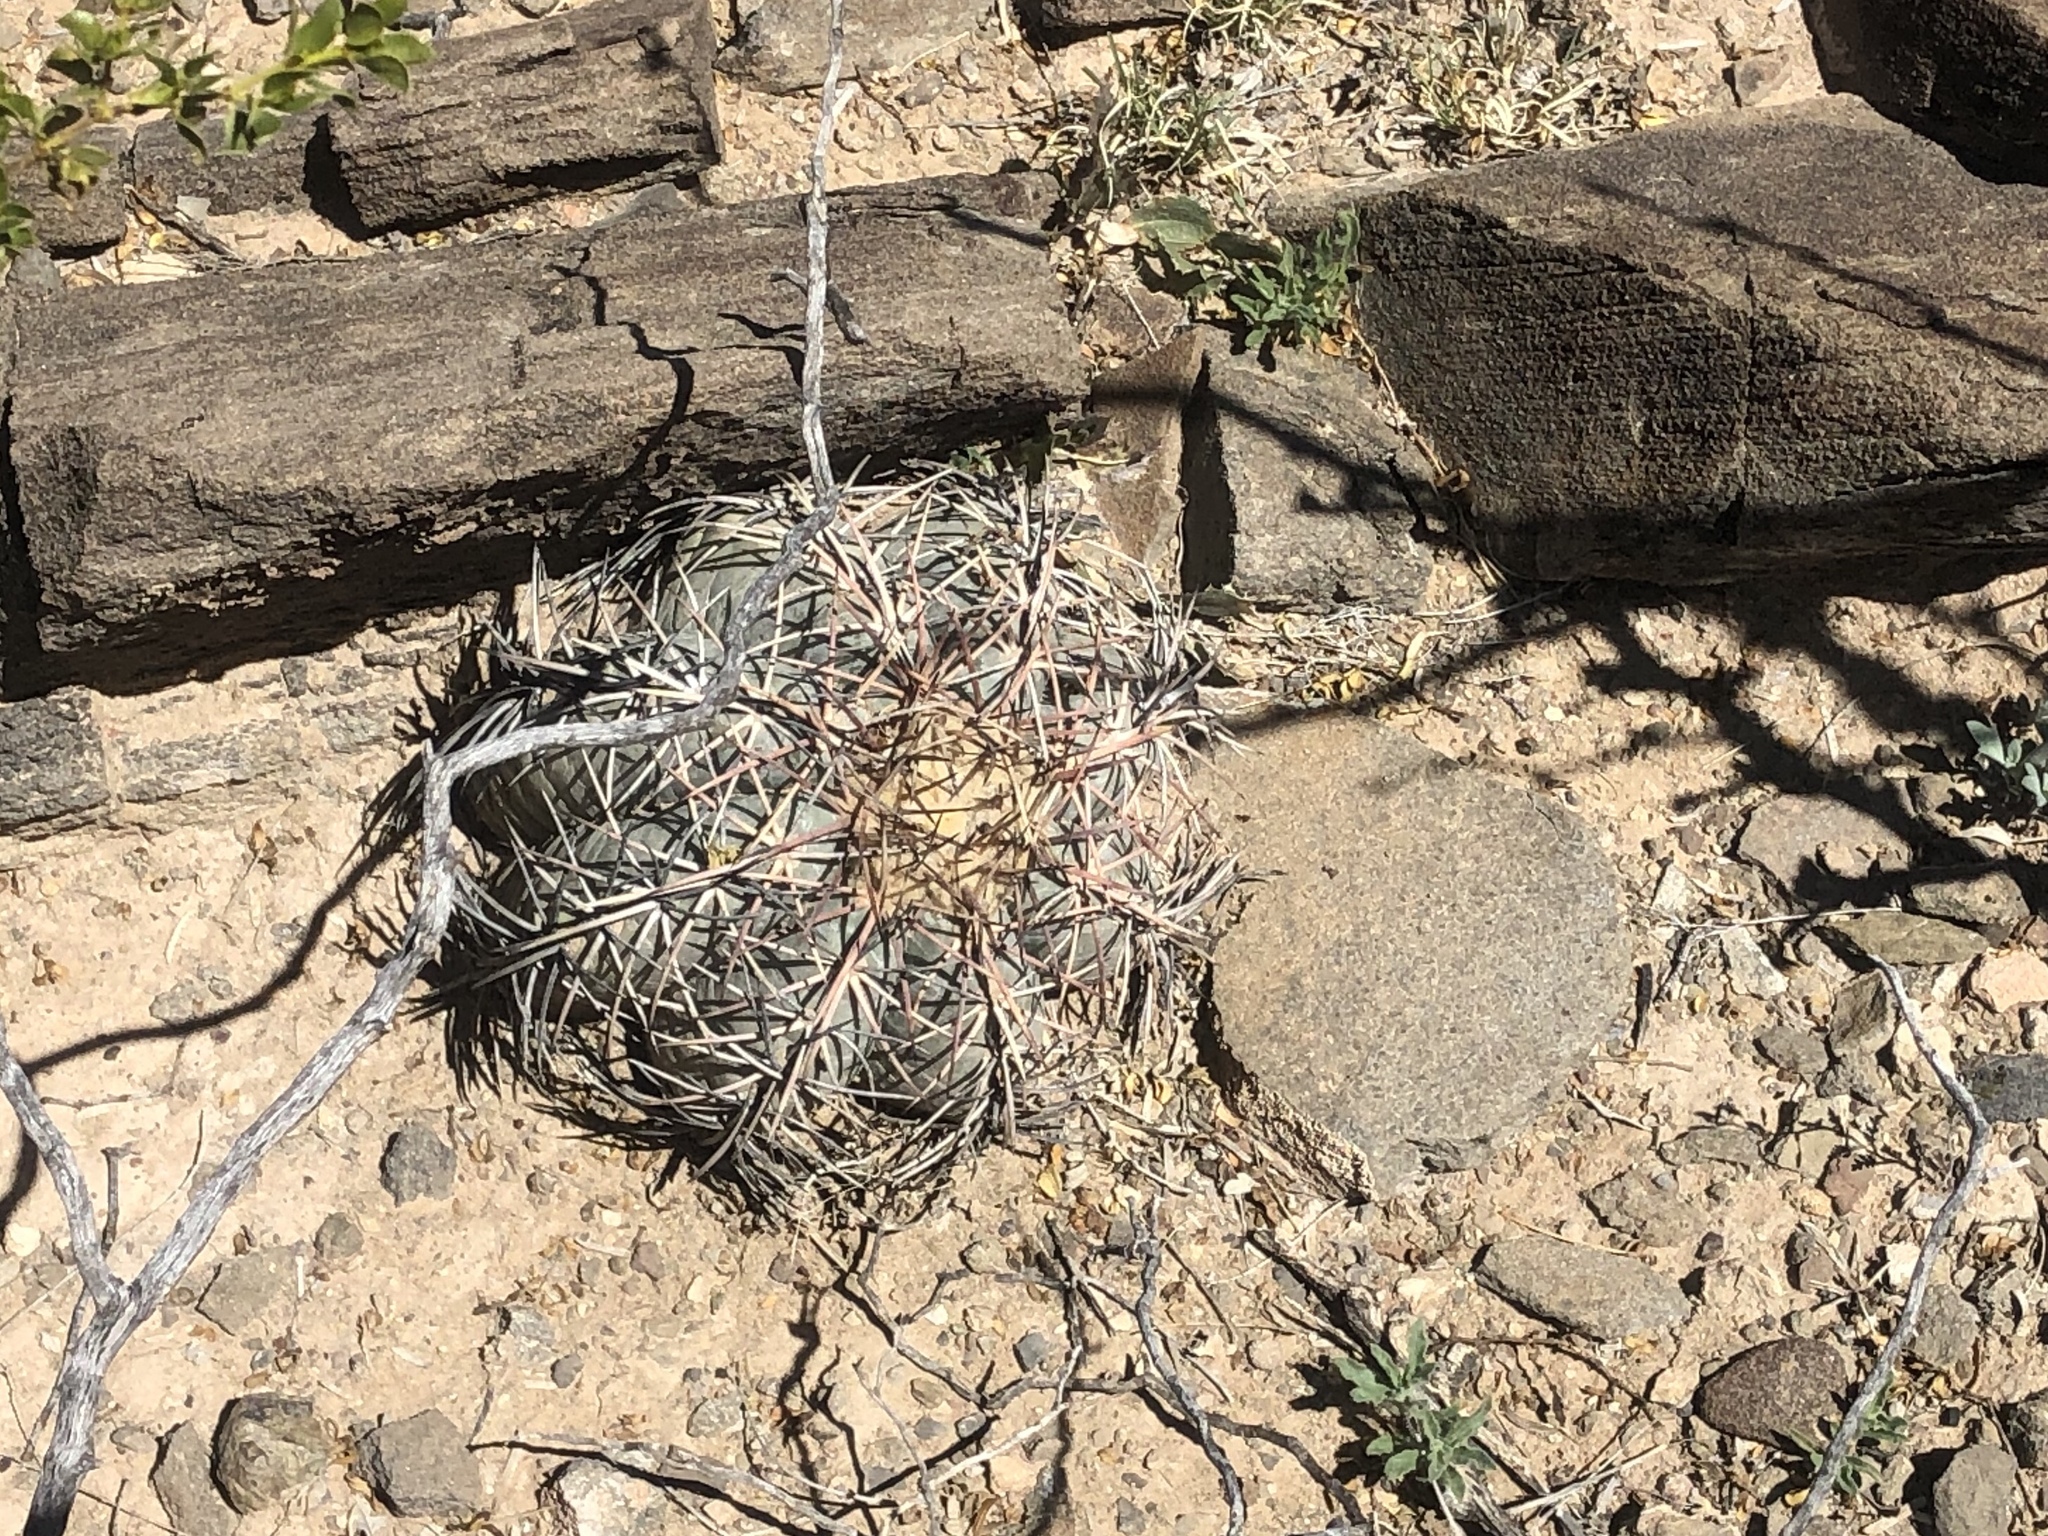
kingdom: Plantae
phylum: Tracheophyta
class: Magnoliopsida
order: Caryophyllales
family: Cactaceae
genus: Echinocactus
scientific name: Echinocactus horizonthalonius
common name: Devilshead
